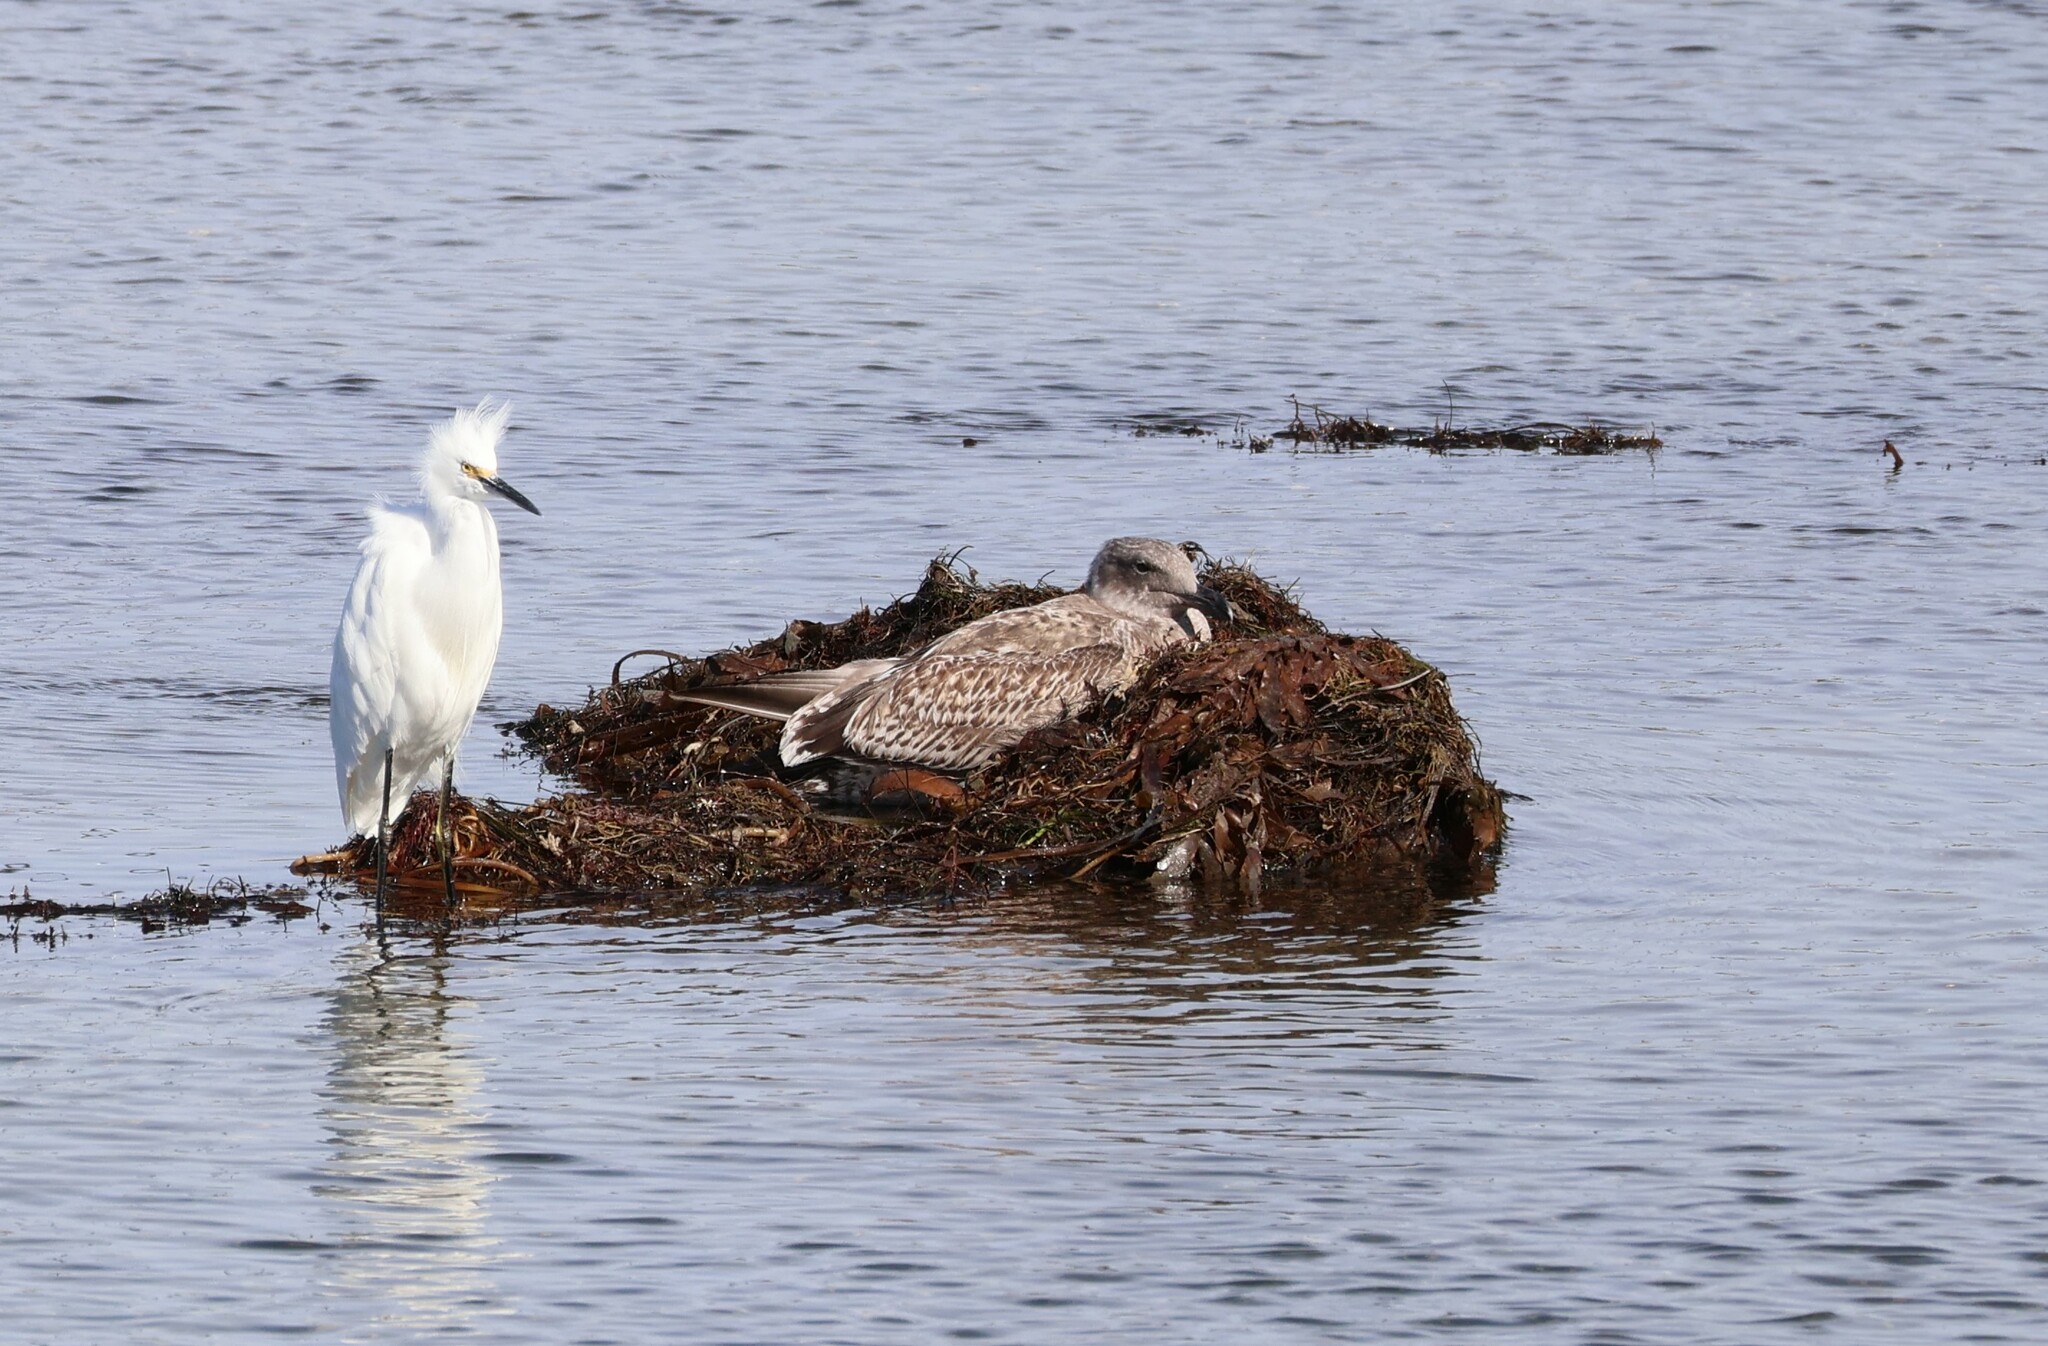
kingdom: Animalia
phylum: Chordata
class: Aves
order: Charadriiformes
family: Laridae
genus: Larus
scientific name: Larus occidentalis
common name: Western gull
